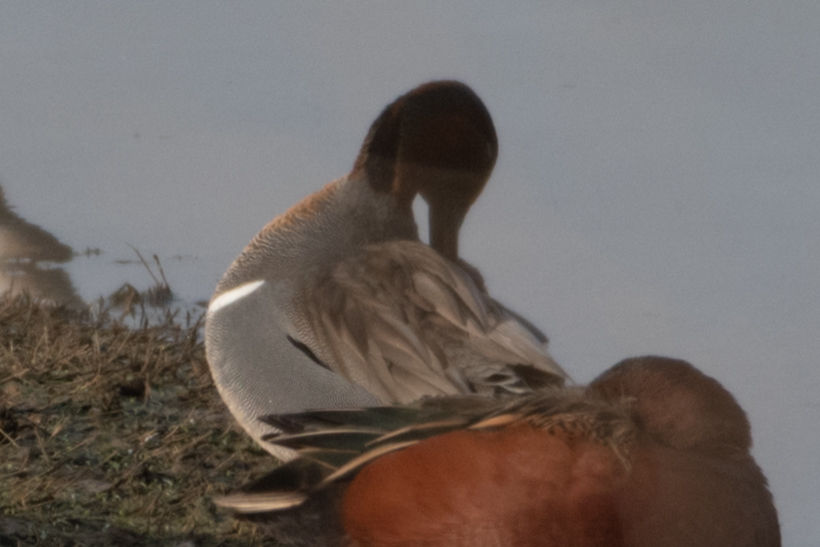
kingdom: Animalia
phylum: Chordata
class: Aves
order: Anseriformes
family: Anatidae
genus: Anas
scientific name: Anas crecca
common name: Eurasian teal
